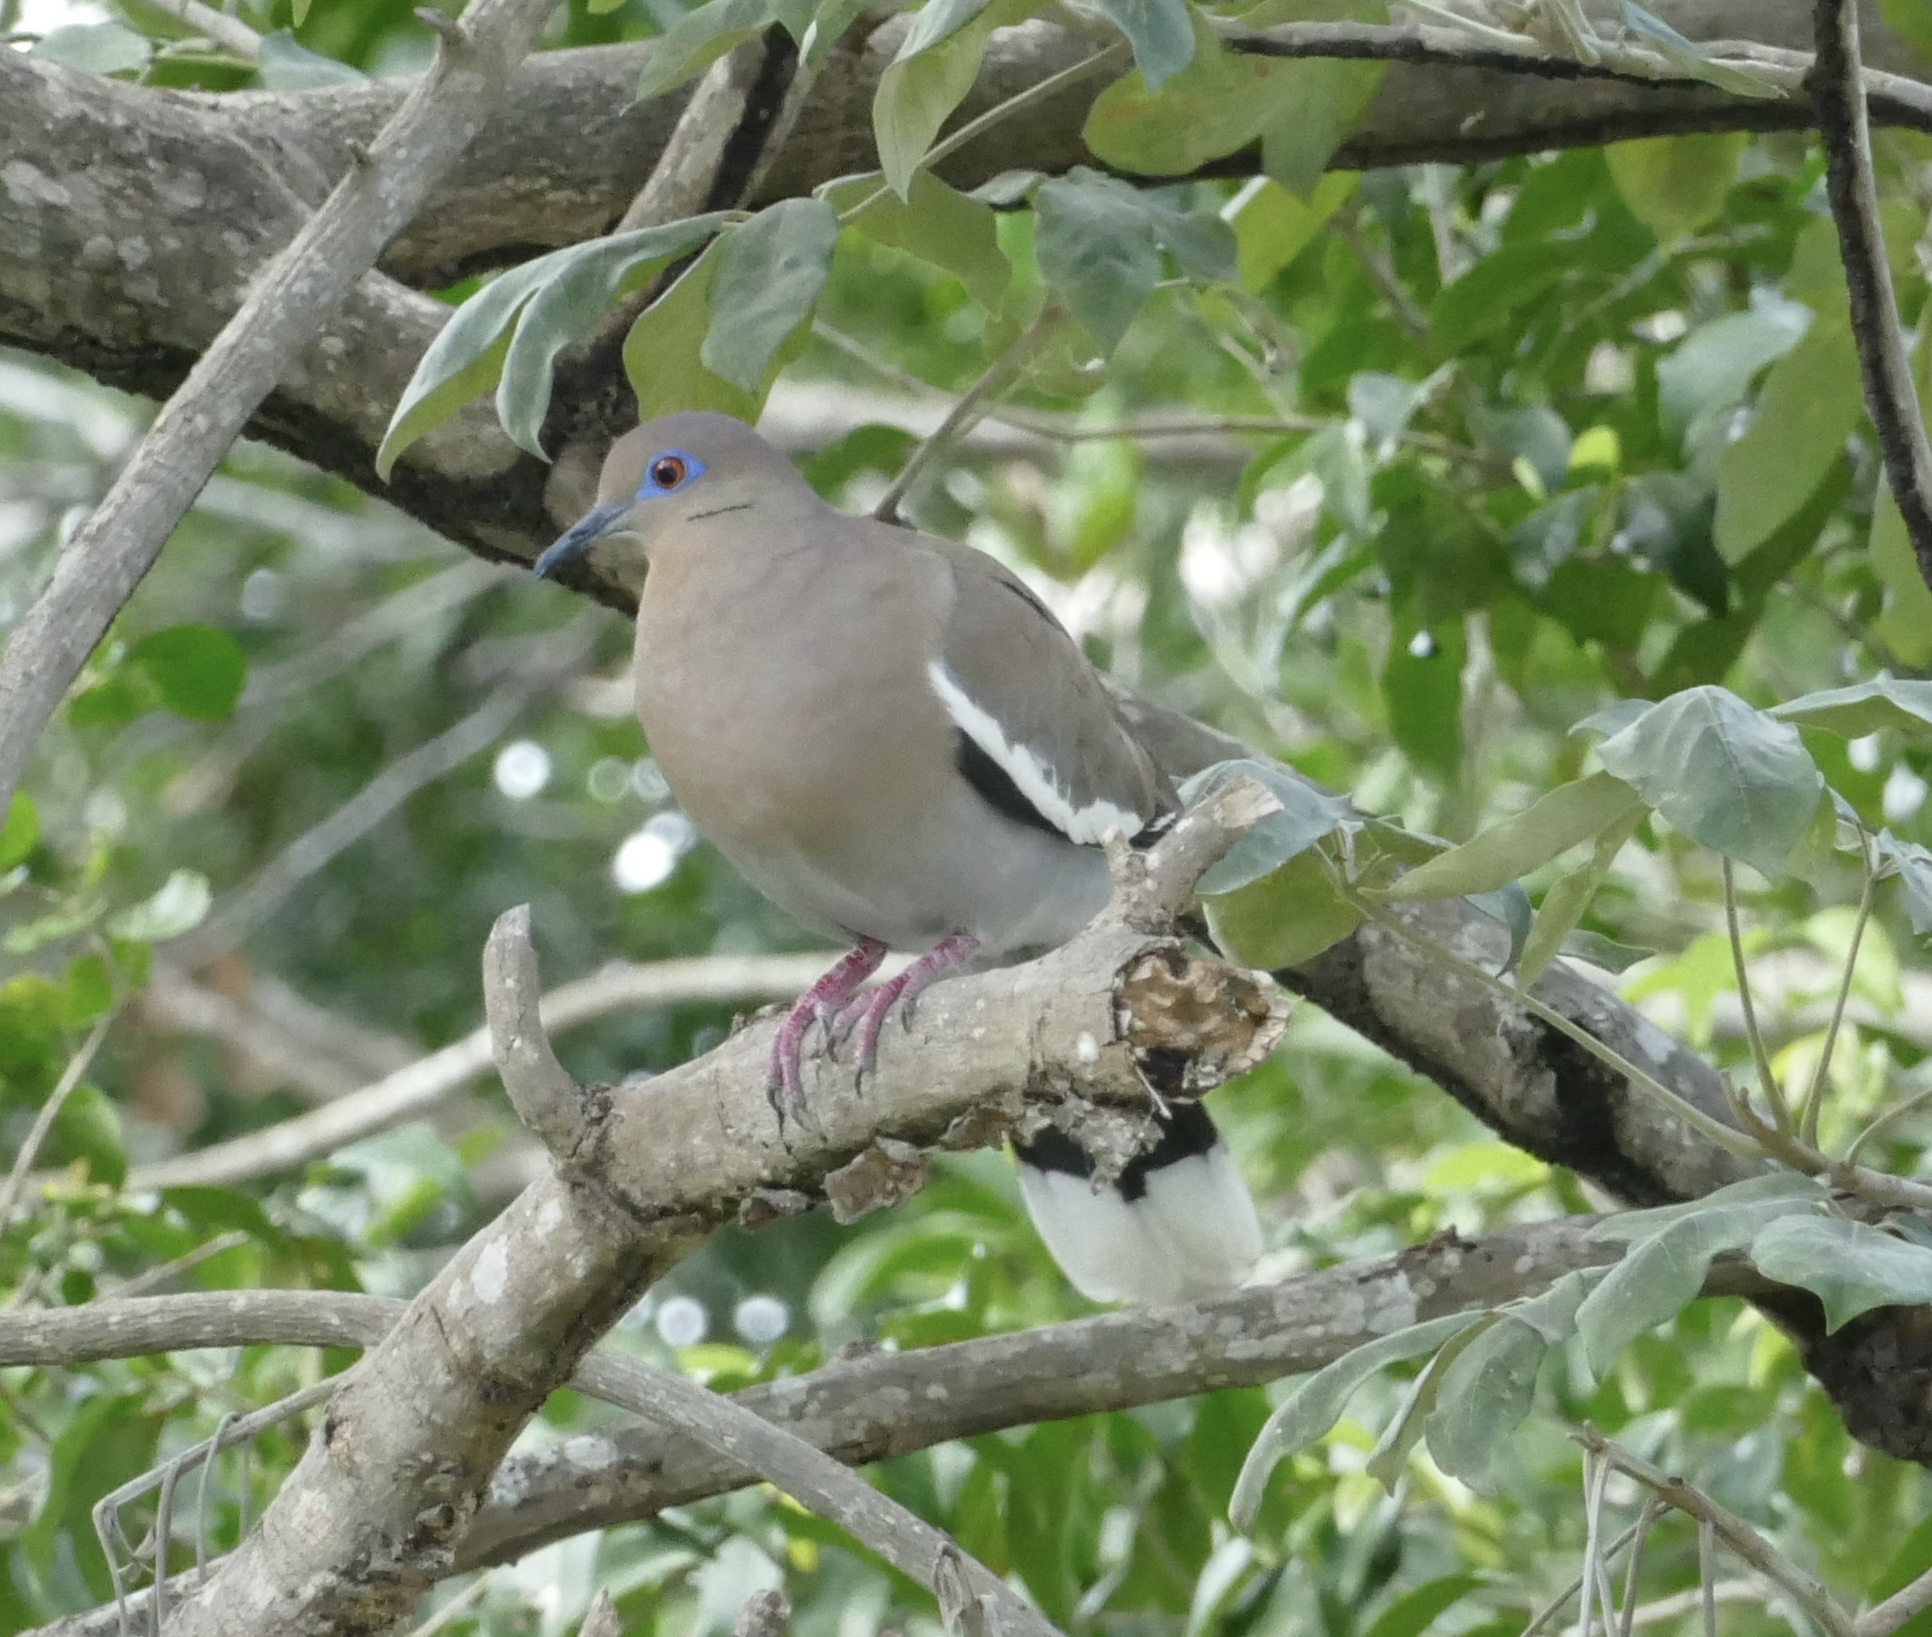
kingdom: Animalia
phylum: Chordata
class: Aves
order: Columbiformes
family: Columbidae
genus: Zenaida
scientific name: Zenaida asiatica
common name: White-winged dove
